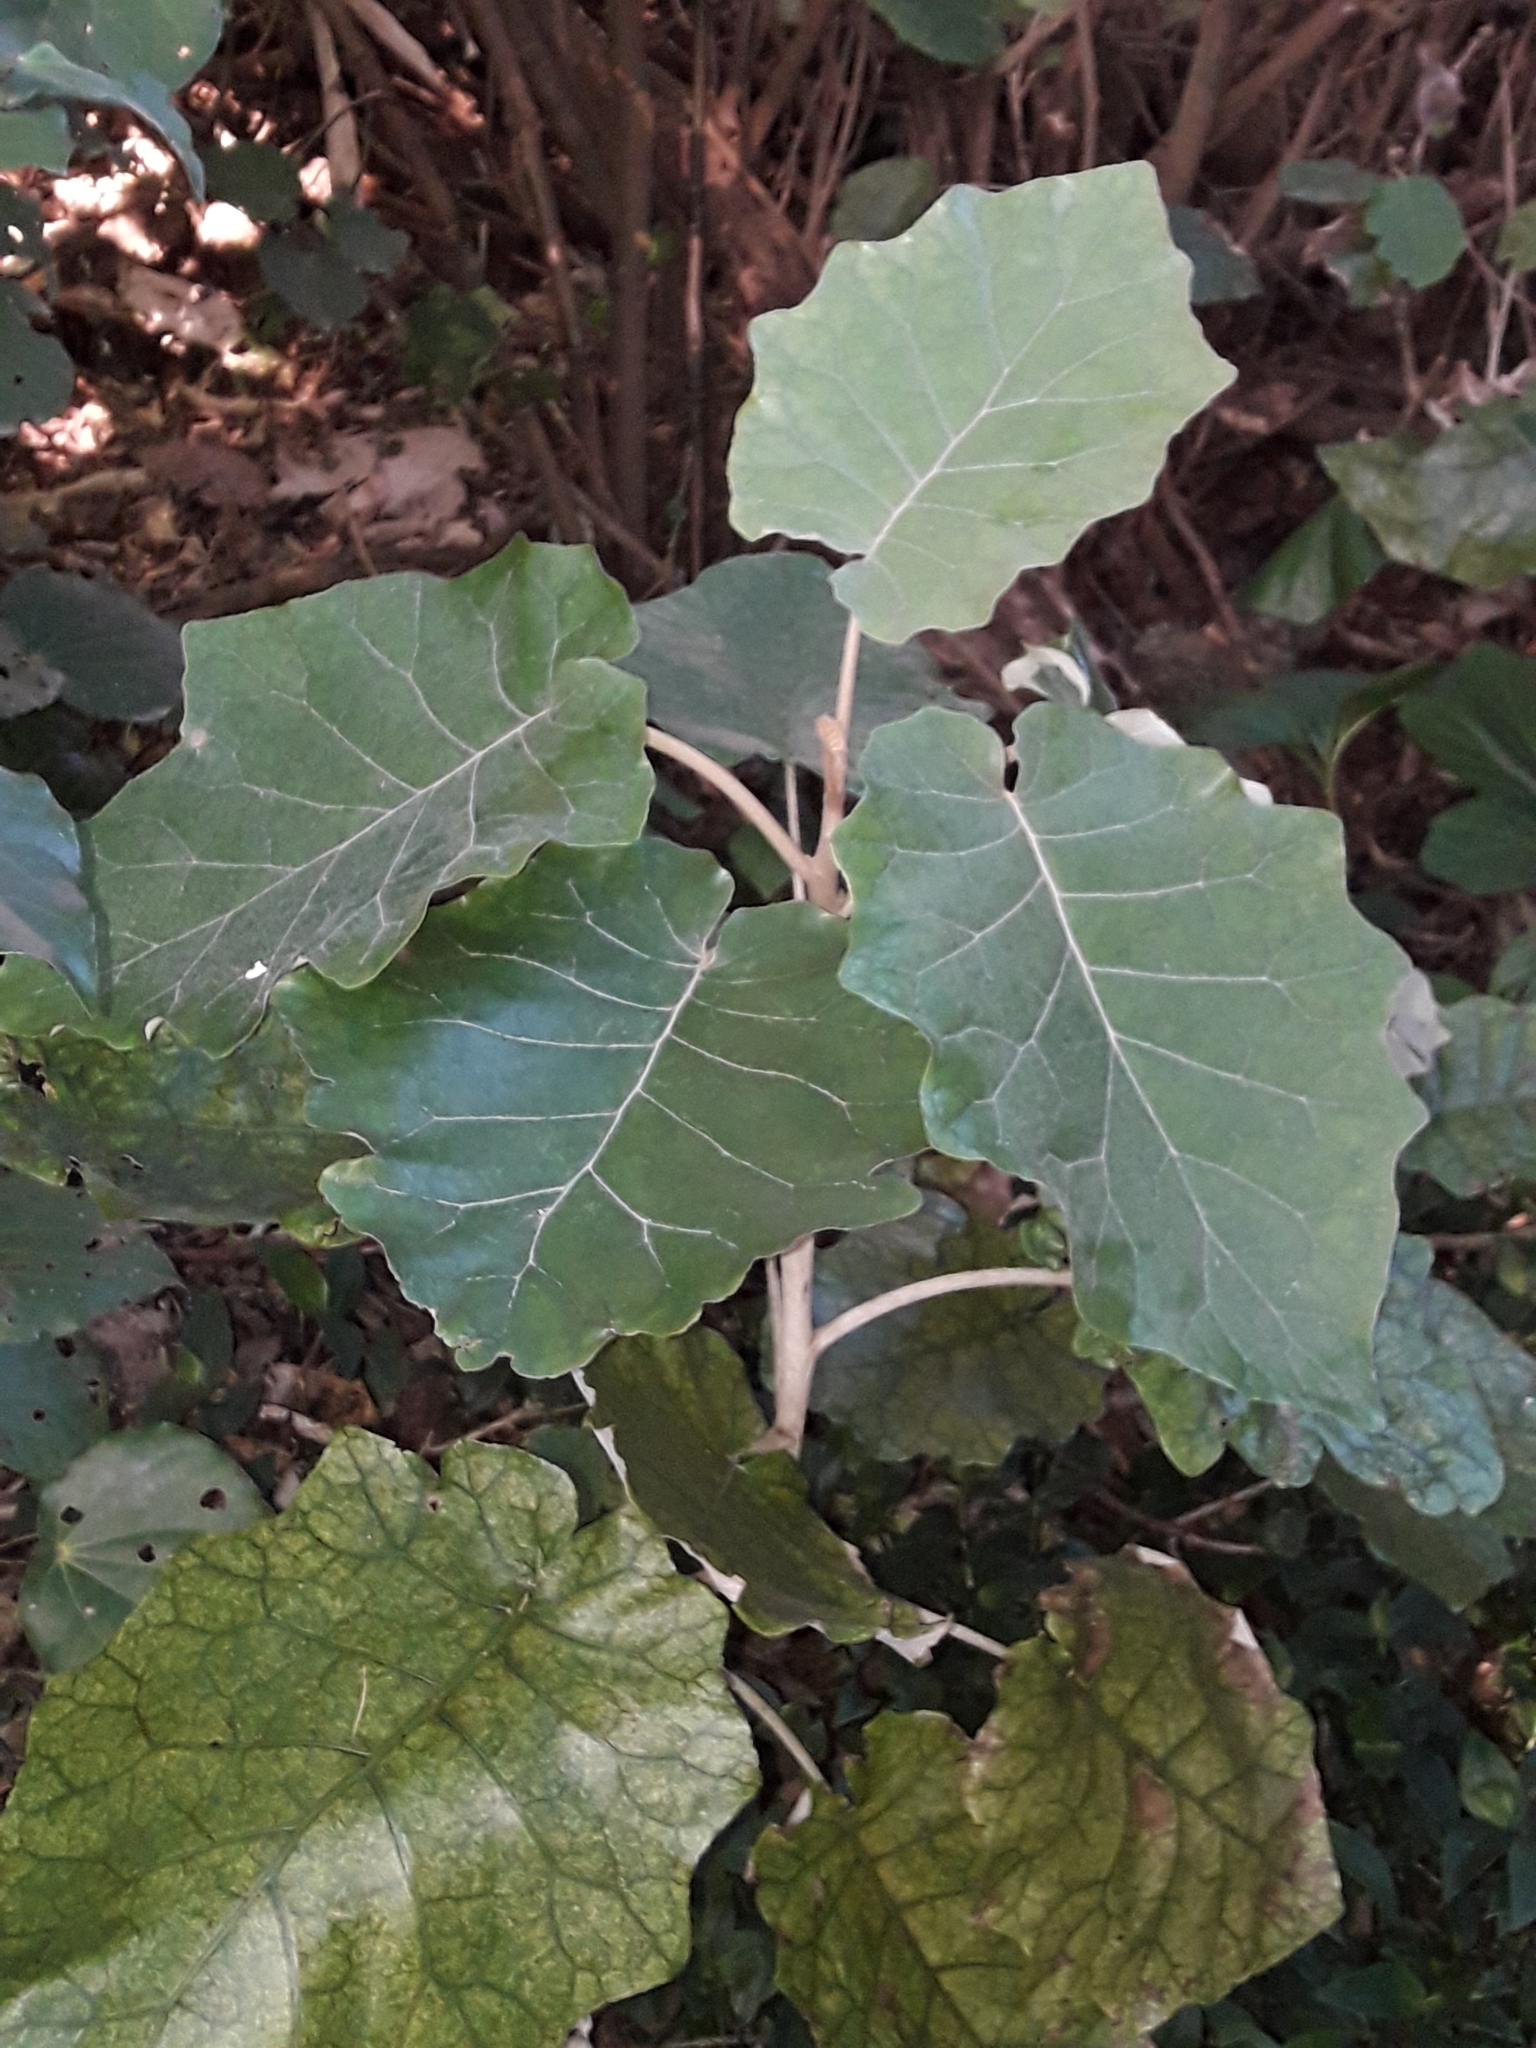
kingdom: Plantae
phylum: Tracheophyta
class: Magnoliopsida
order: Asterales
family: Asteraceae
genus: Brachyglottis
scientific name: Brachyglottis repanda
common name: Hedge ragwort
